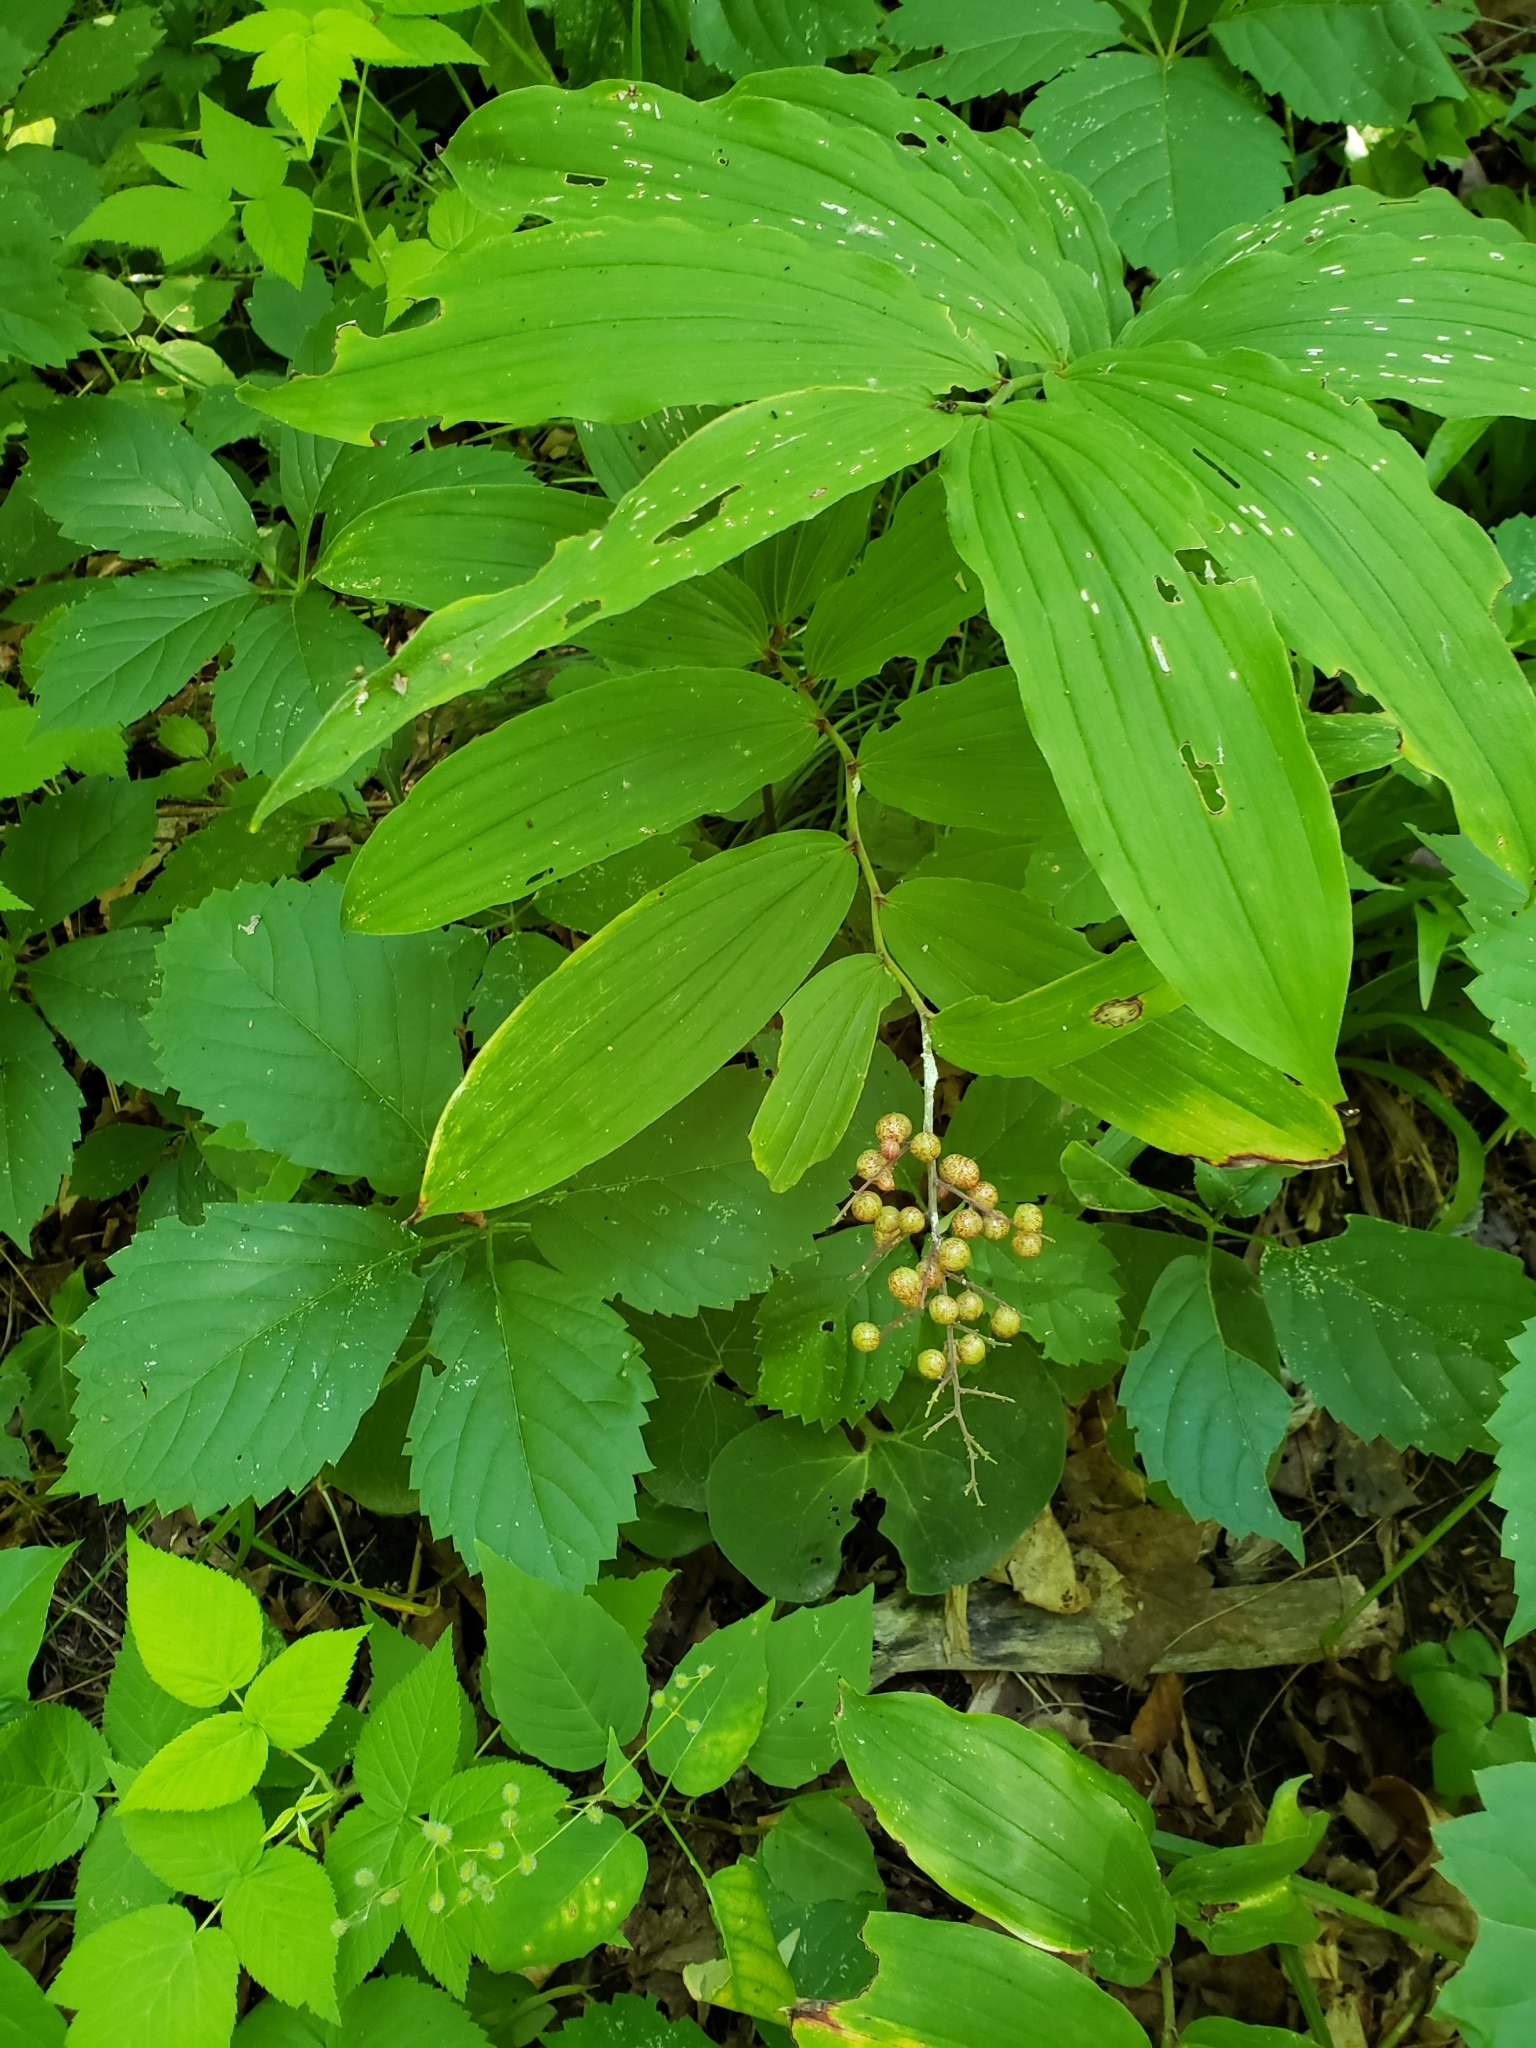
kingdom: Plantae
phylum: Tracheophyta
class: Liliopsida
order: Asparagales
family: Asparagaceae
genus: Maianthemum
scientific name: Maianthemum racemosum
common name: False spikenard
